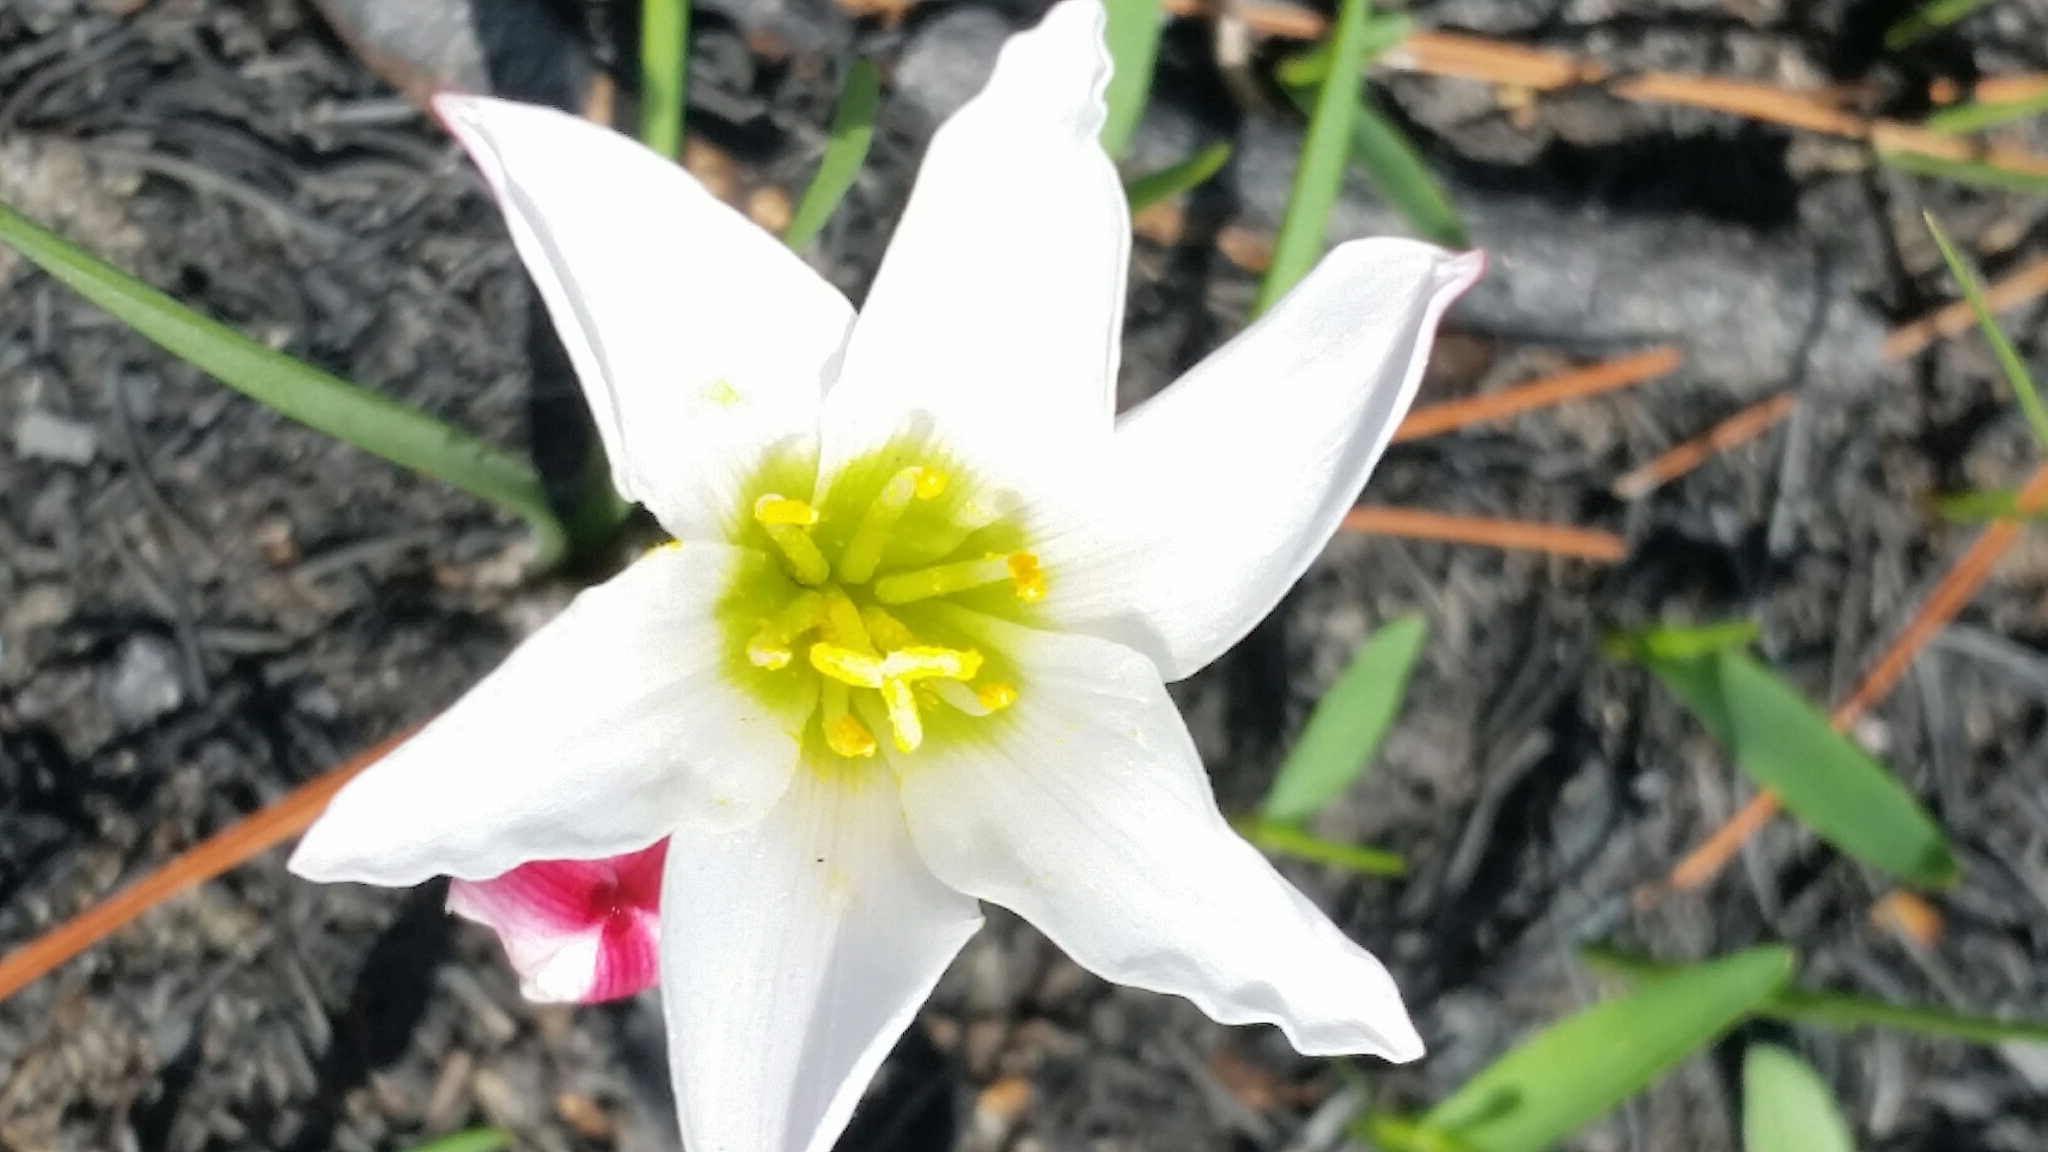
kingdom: Plantae
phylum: Tracheophyta
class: Liliopsida
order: Asparagales
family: Amaryllidaceae
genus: Zephyranthes
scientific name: Zephyranthes simpsonii
